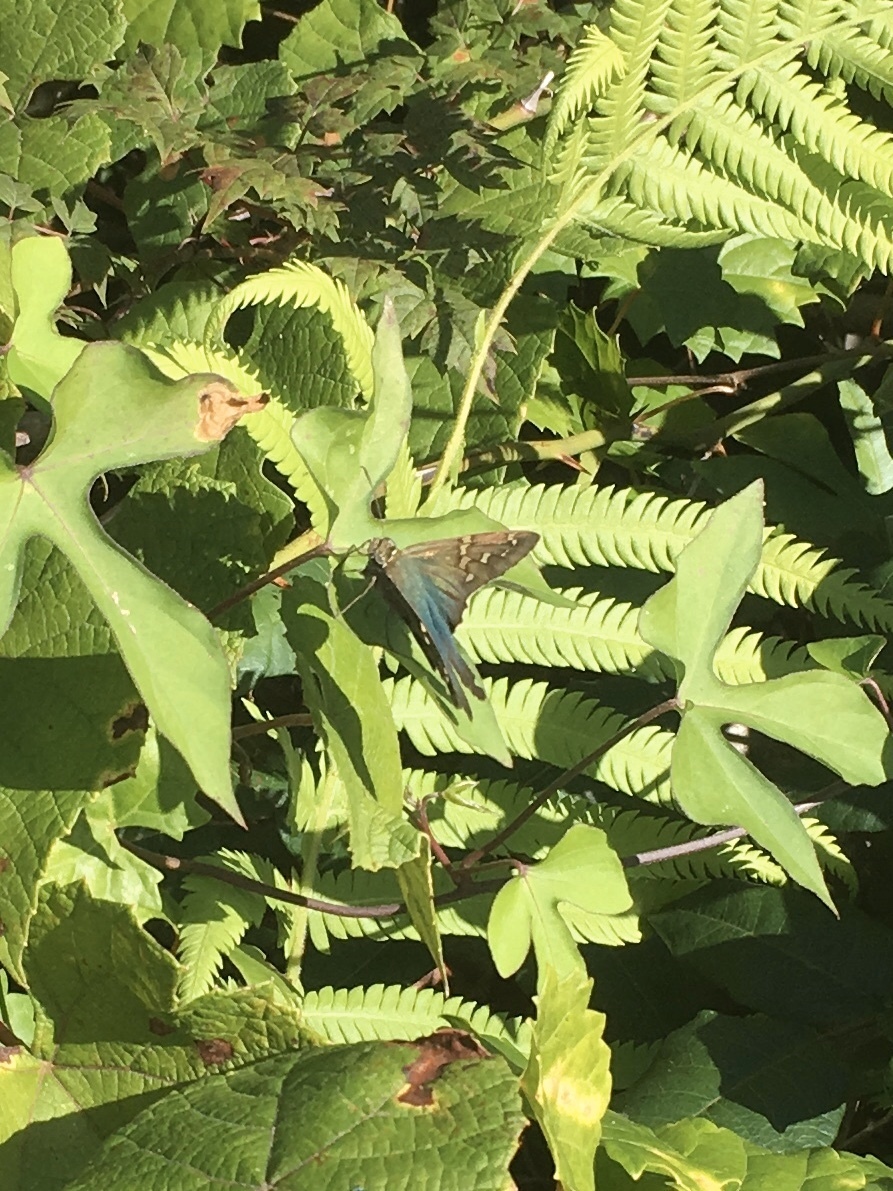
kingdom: Animalia
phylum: Arthropoda
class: Insecta
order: Lepidoptera
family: Hesperiidae
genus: Urbanus
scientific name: Urbanus proteus
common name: Long-tailed skipper
